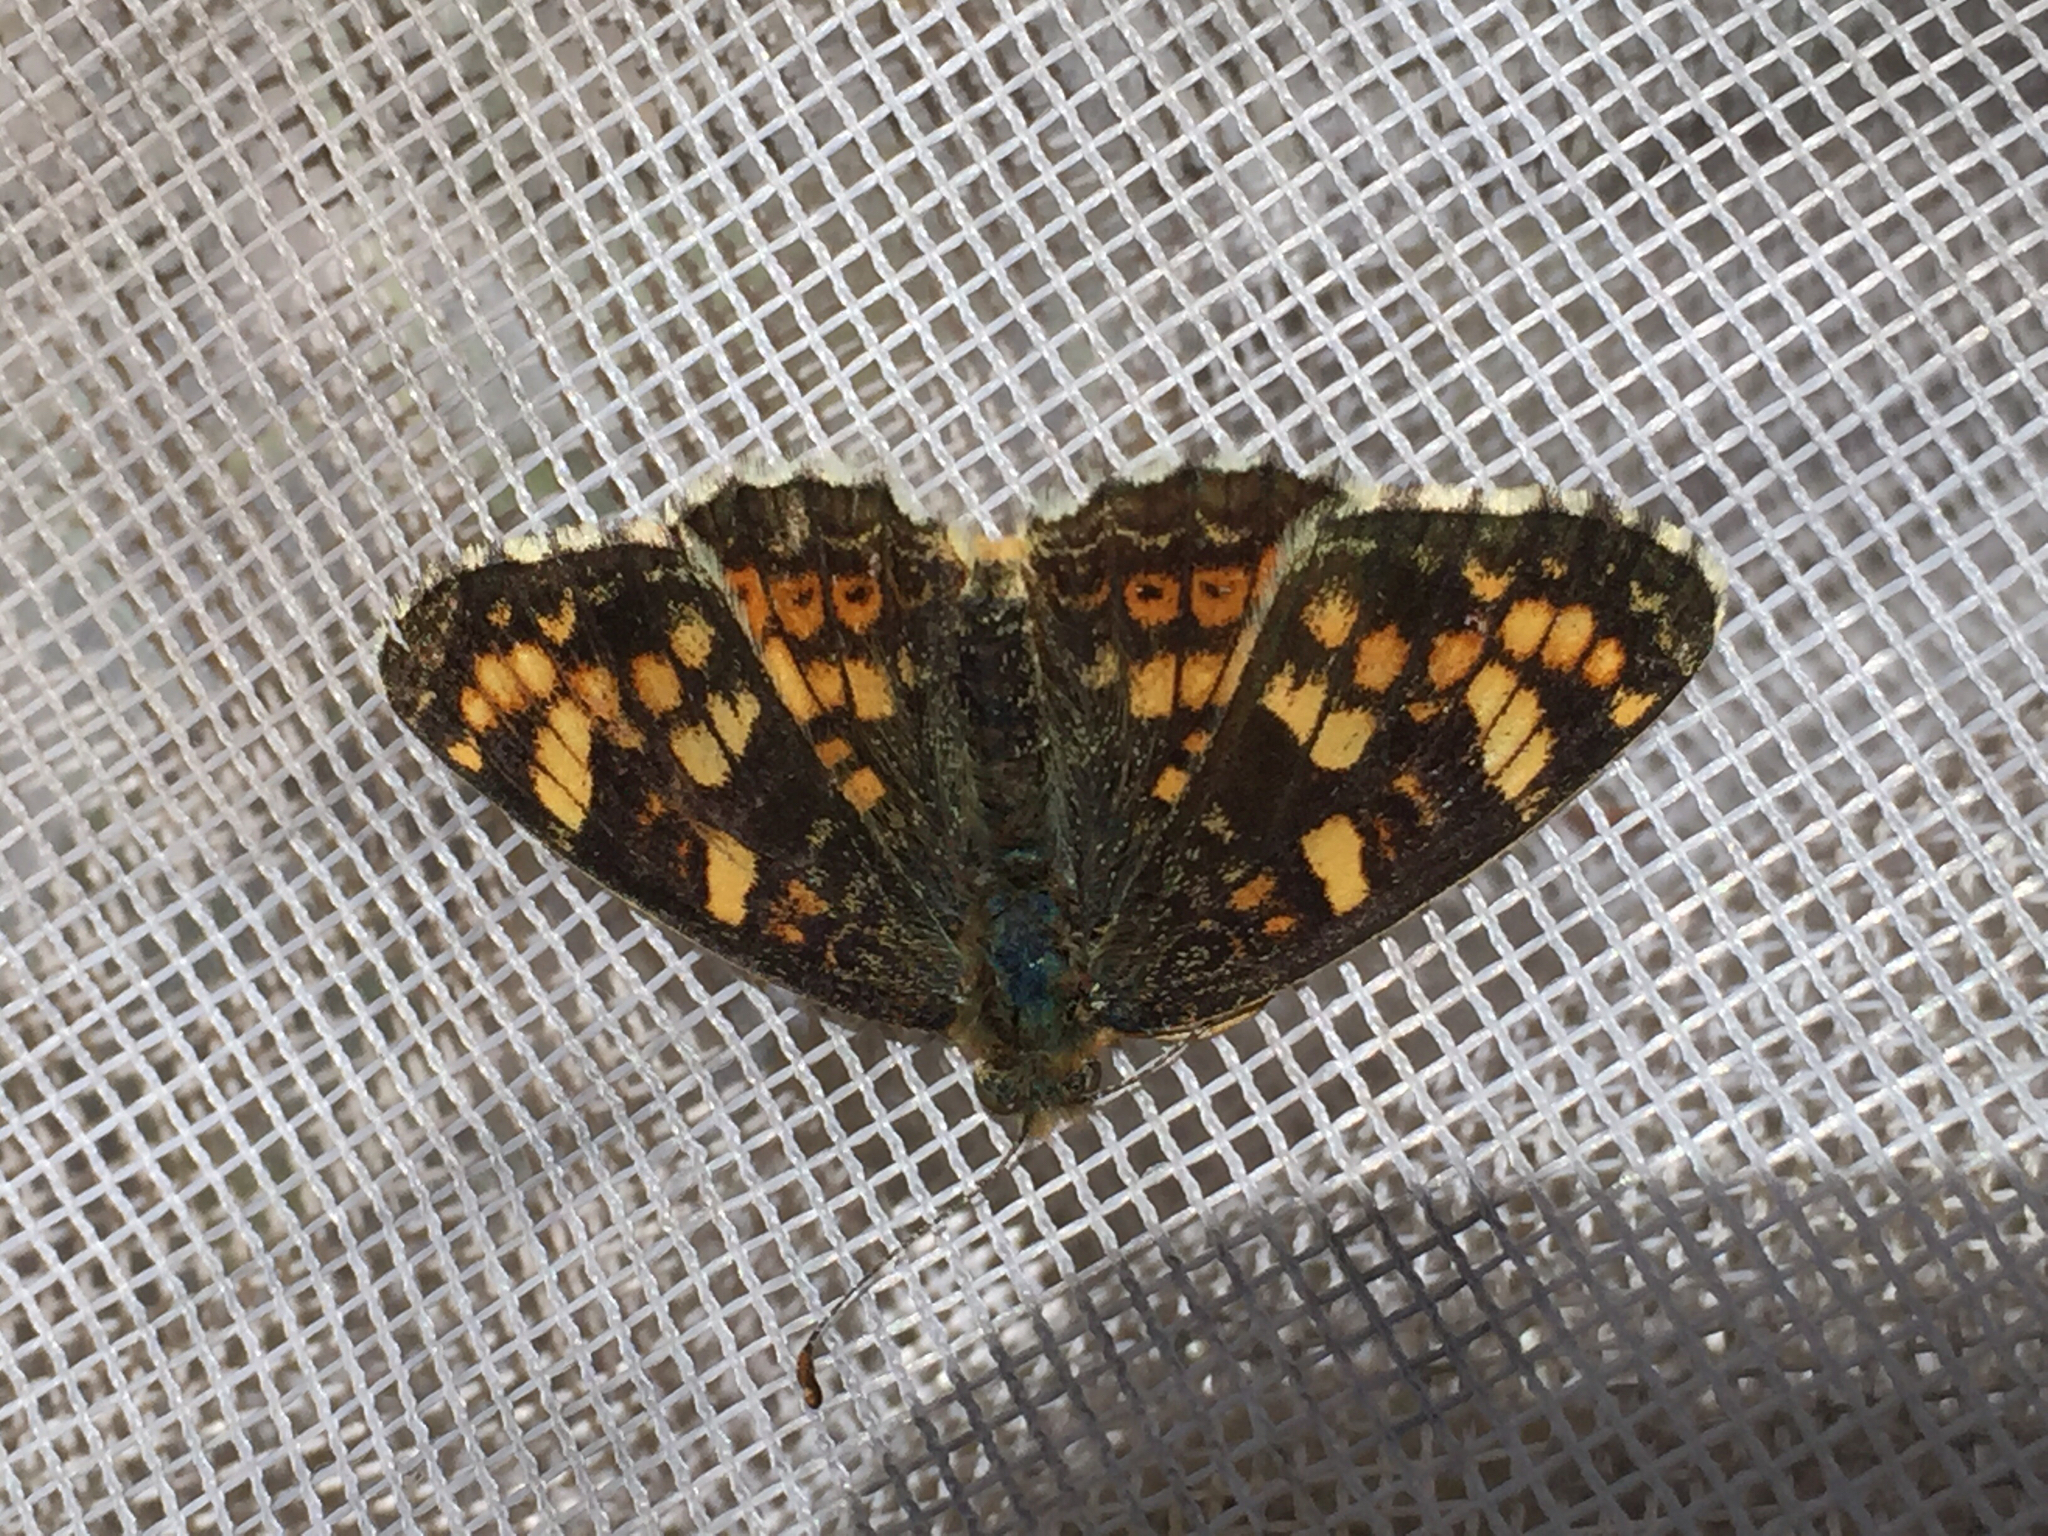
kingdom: Animalia
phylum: Arthropoda
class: Insecta
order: Lepidoptera
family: Nymphalidae
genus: Phyciodes
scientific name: Phyciodes tharos
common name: Pearl crescent
